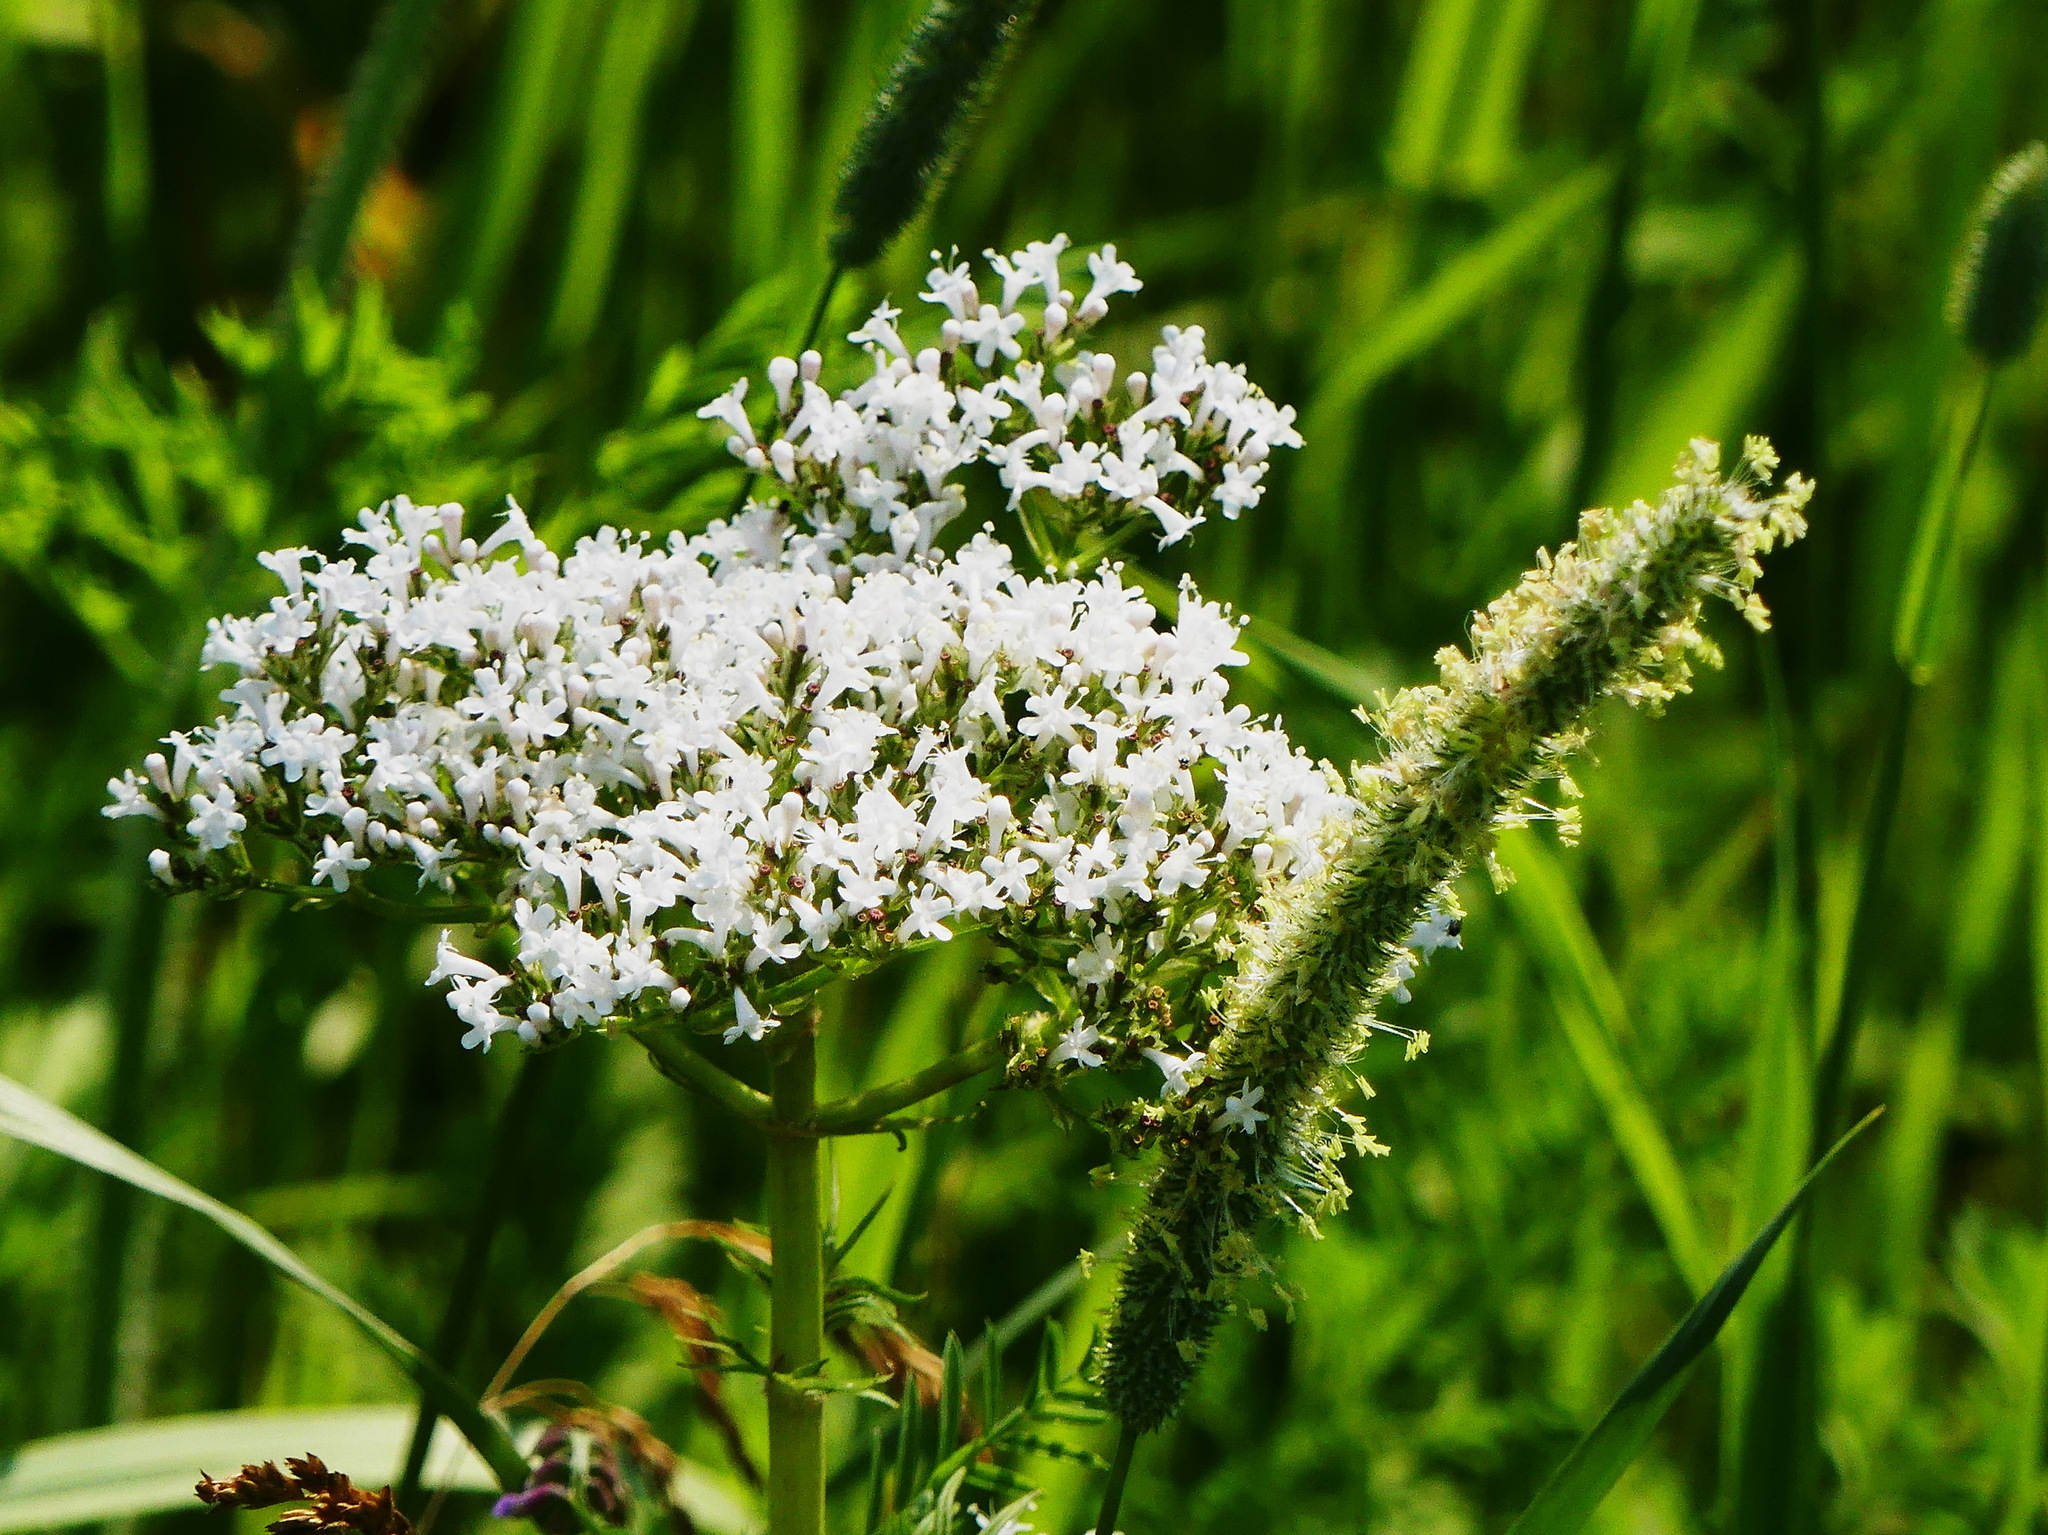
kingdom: Plantae
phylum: Tracheophyta
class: Magnoliopsida
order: Dipsacales
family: Caprifoliaceae
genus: Valeriana
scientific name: Valeriana officinalis
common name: Common valerian
